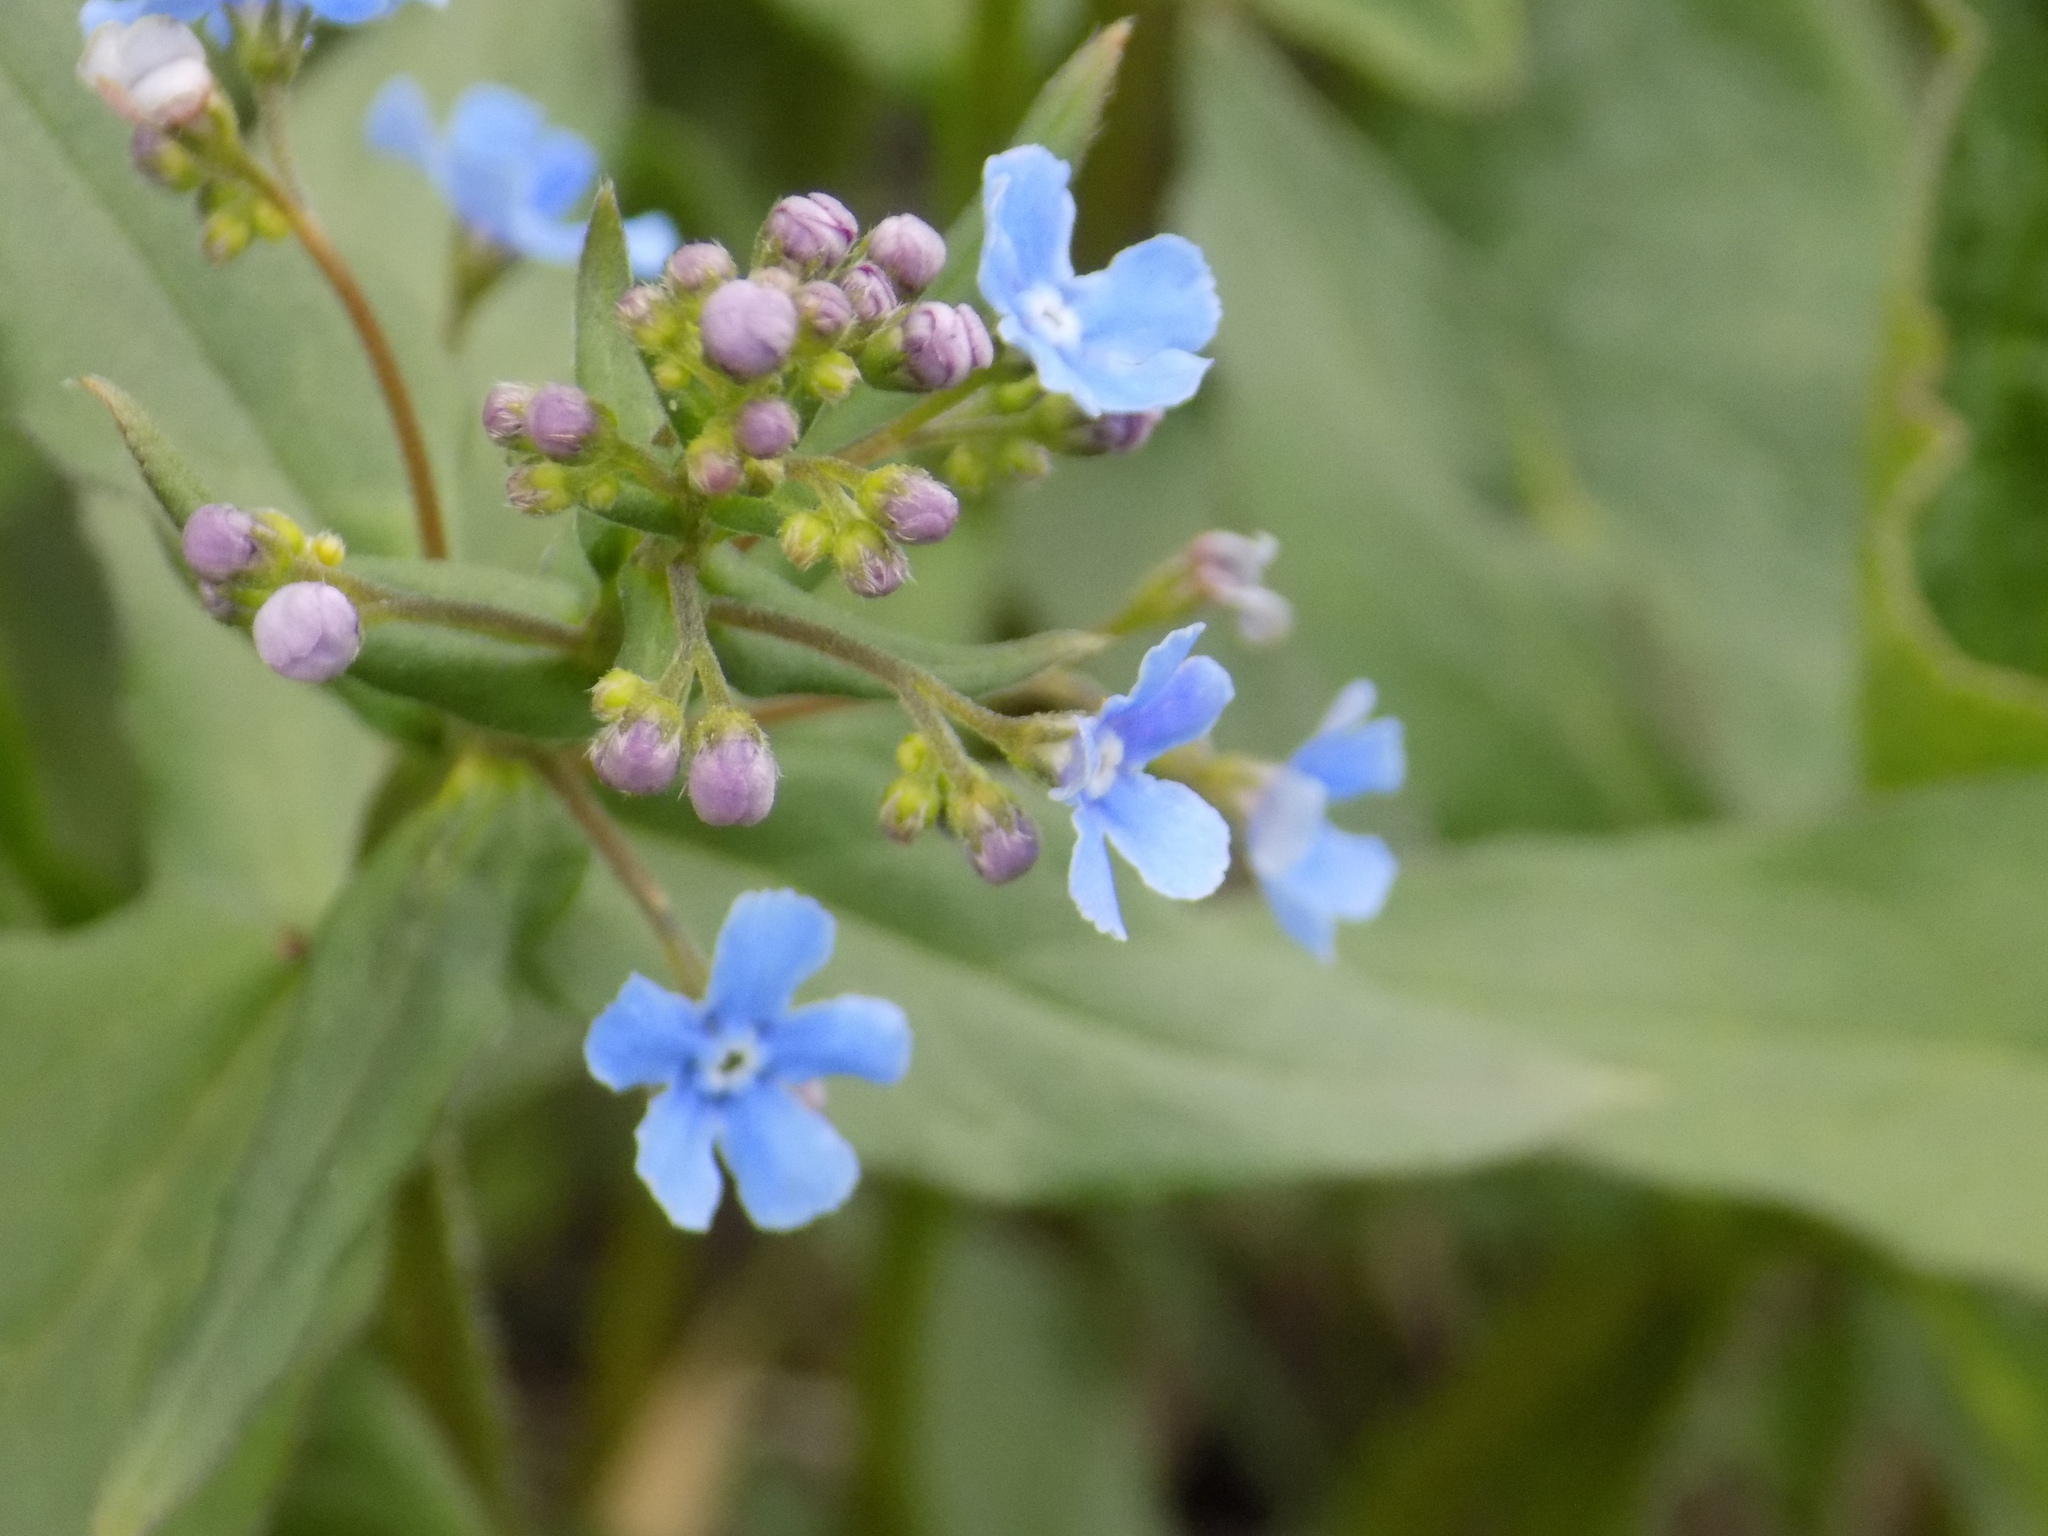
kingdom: Plantae
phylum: Tracheophyta
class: Magnoliopsida
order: Boraginales
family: Boraginaceae
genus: Brunnera
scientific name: Brunnera sibirica
